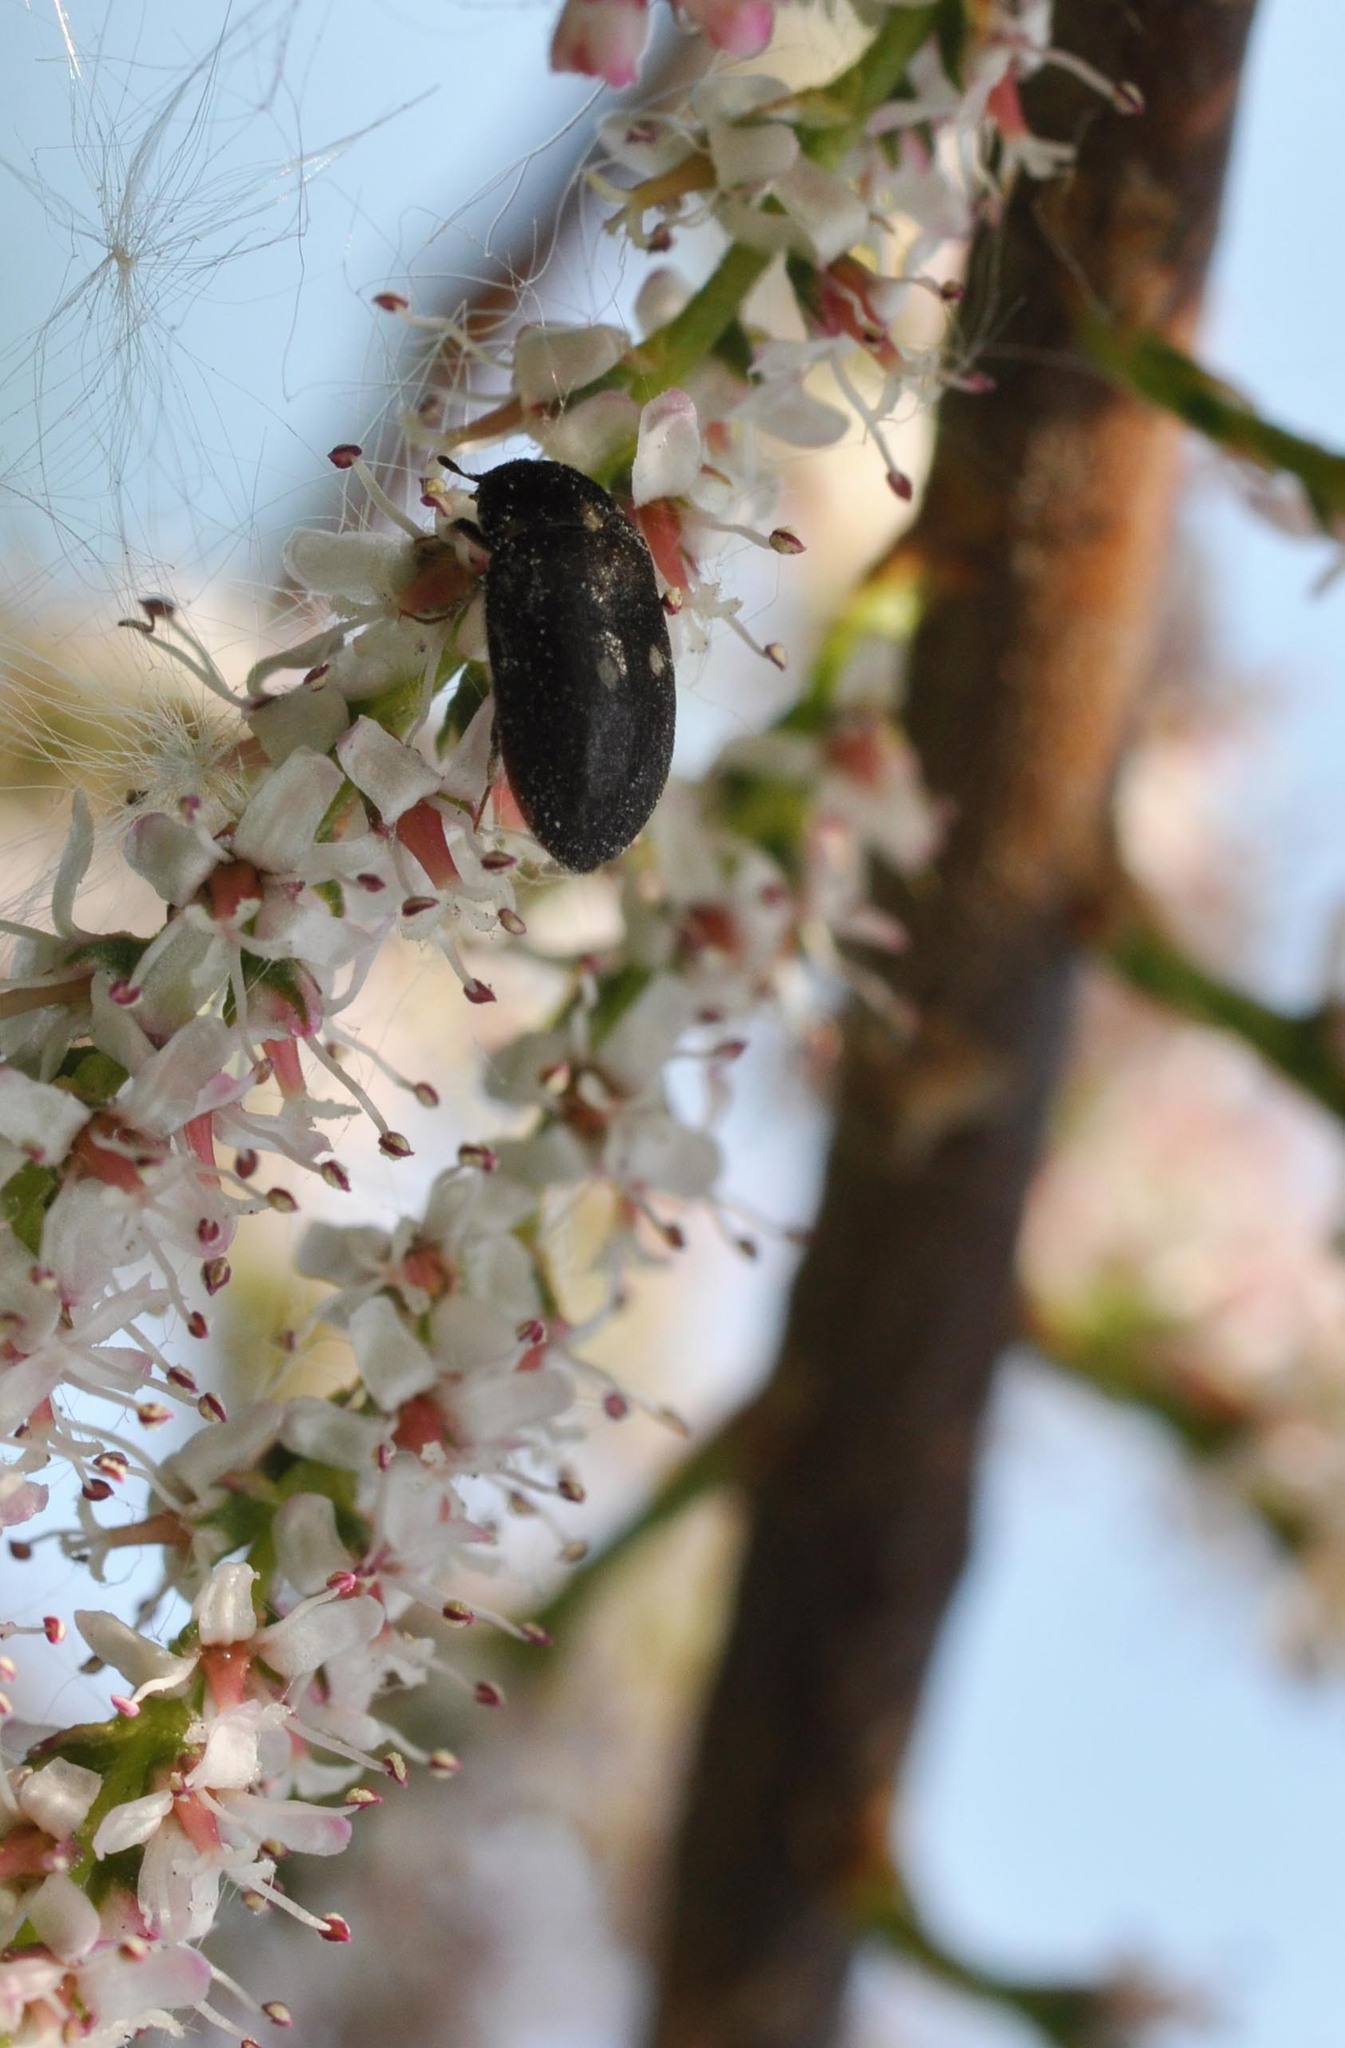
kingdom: Animalia
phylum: Arthropoda
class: Insecta
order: Coleoptera
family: Dermestidae
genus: Attagenus
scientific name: Attagenus pellio
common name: Two-spotted carpet beetle
